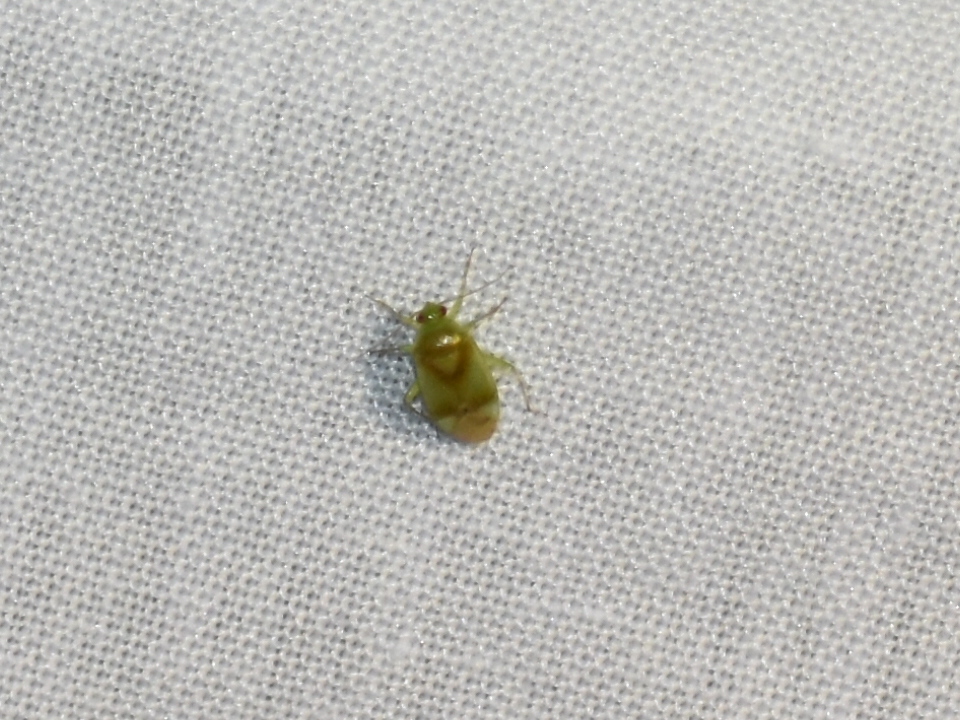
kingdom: Animalia
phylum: Arthropoda
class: Insecta
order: Hemiptera
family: Miridae
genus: Neolygus
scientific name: Neolygus
